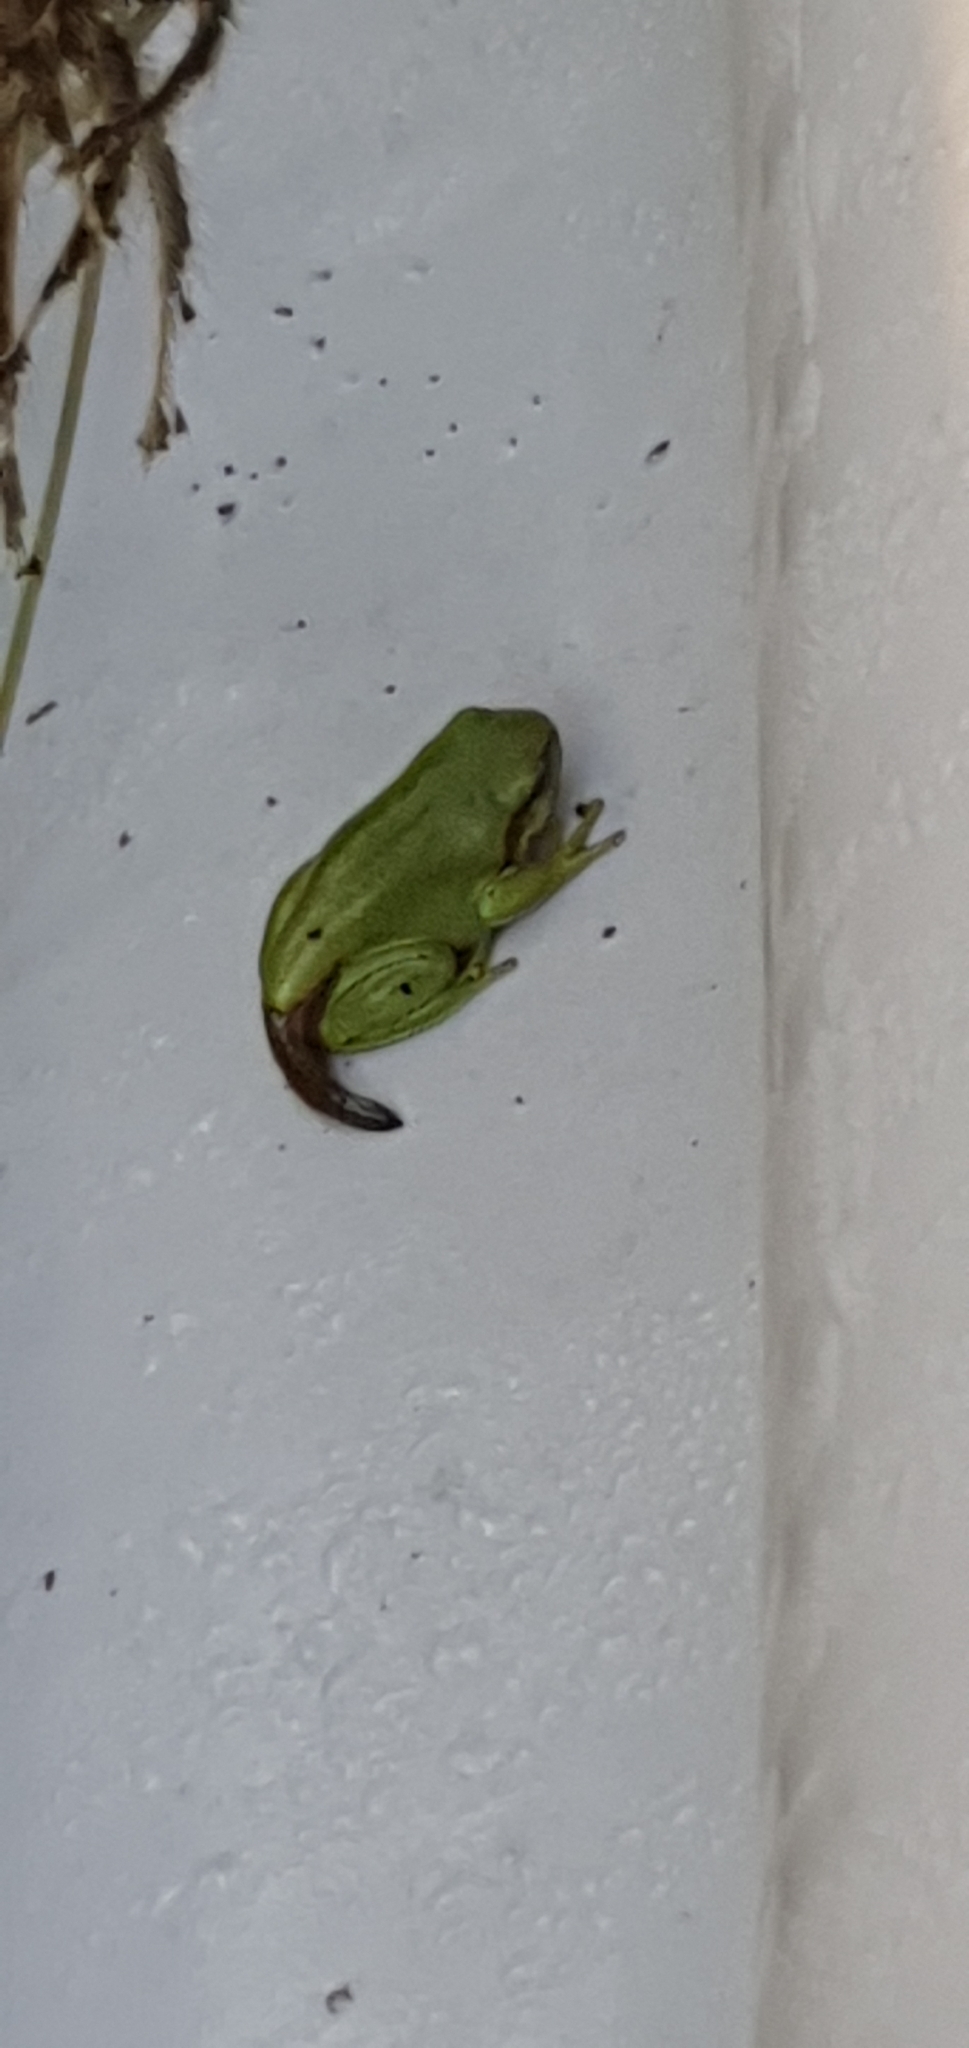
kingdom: Animalia
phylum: Chordata
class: Amphibia
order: Anura
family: Pelodryadidae
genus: Ranoidea
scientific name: Ranoidea caerulea
